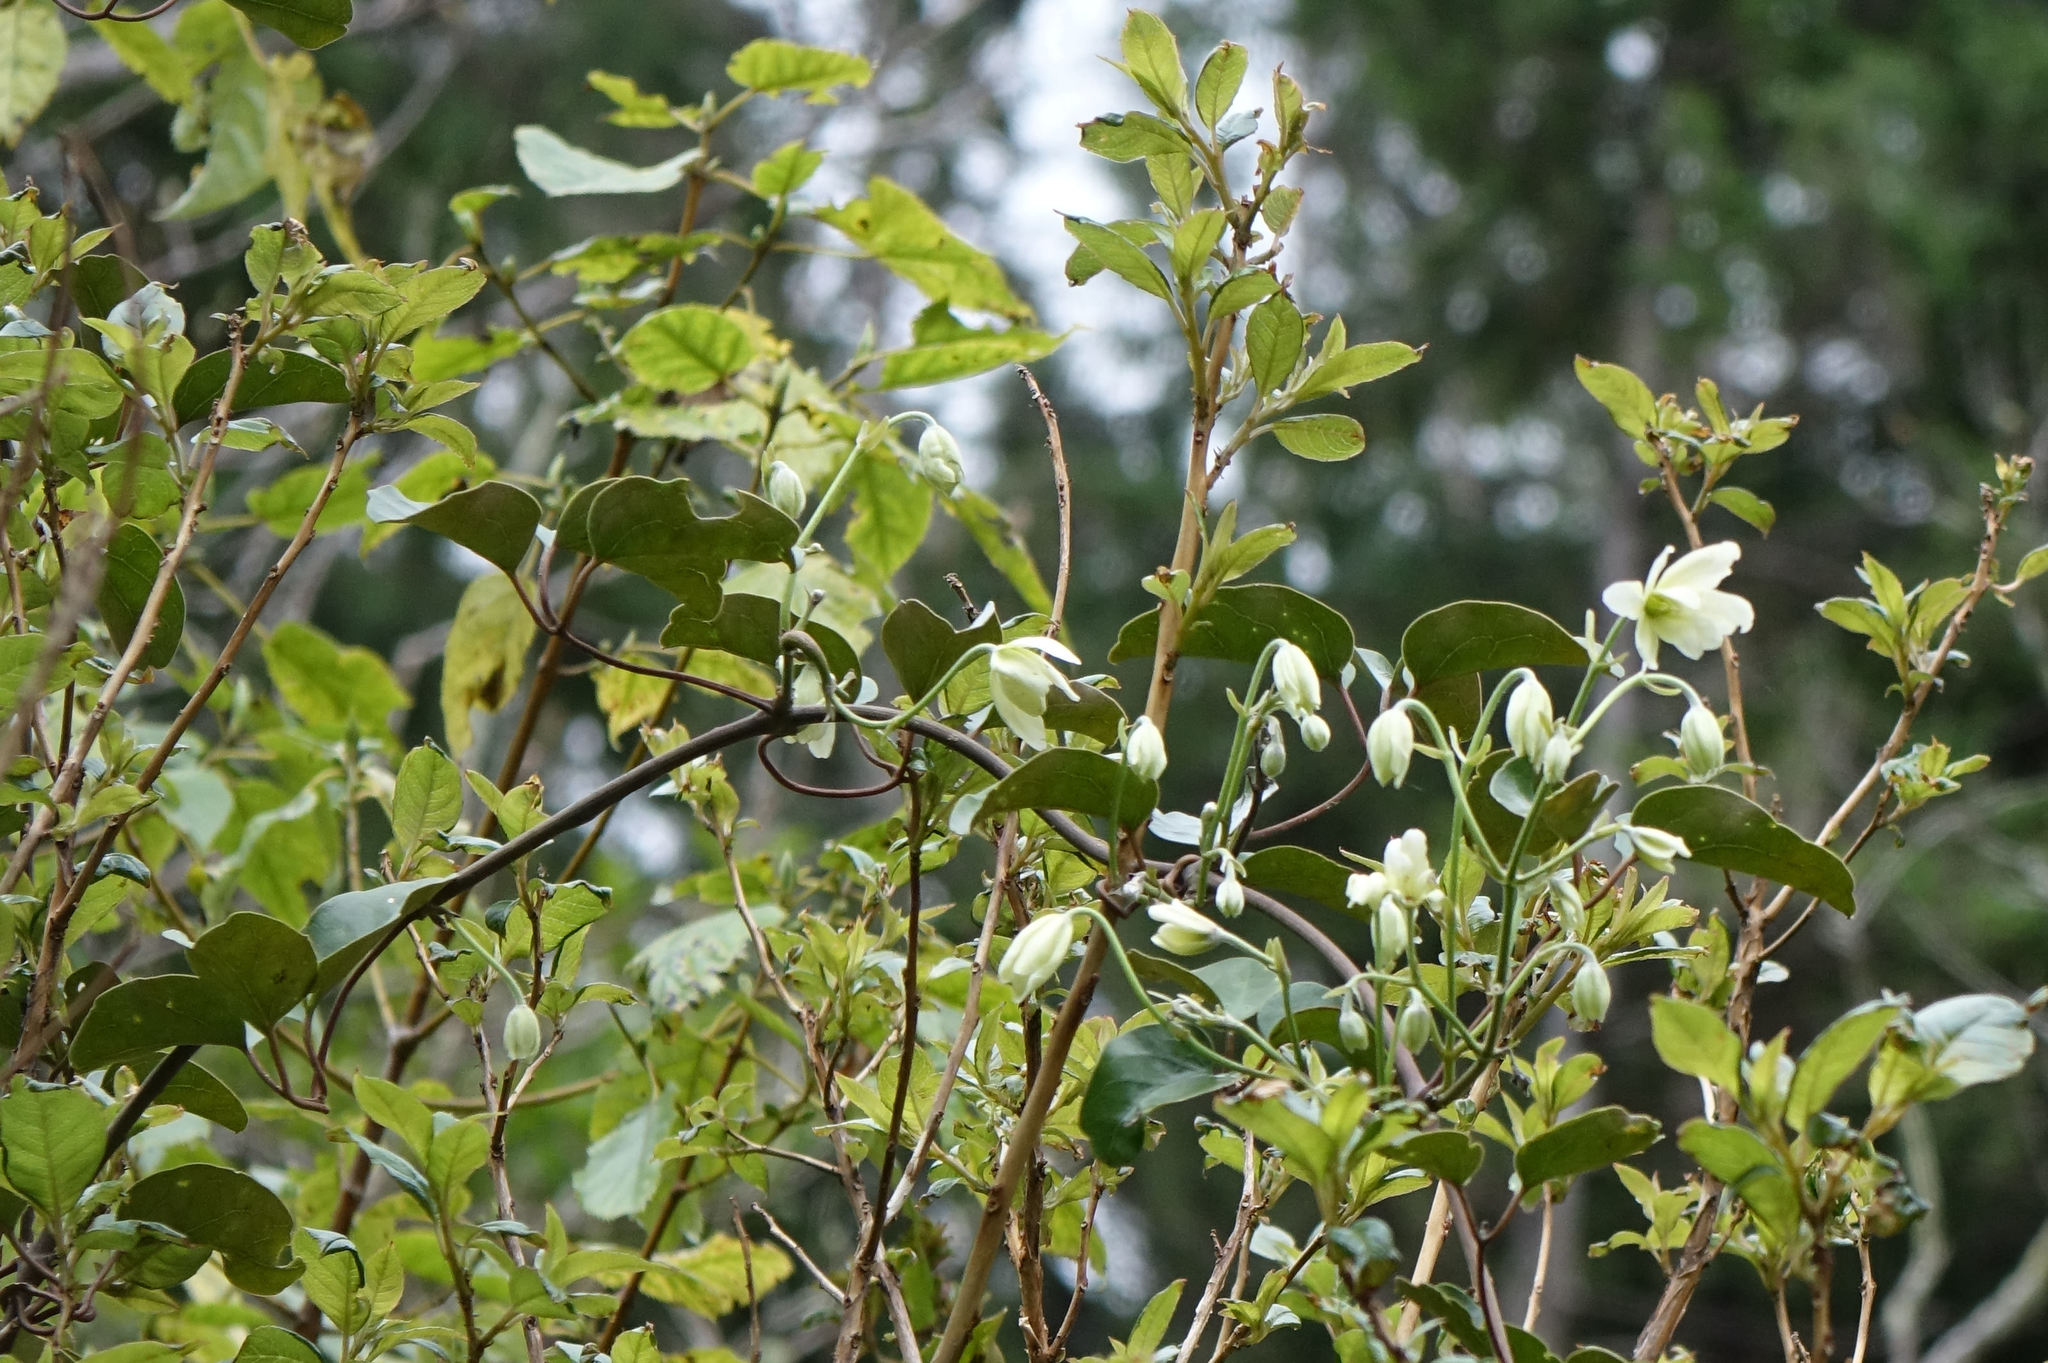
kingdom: Plantae
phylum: Tracheophyta
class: Magnoliopsida
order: Ranunculales
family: Ranunculaceae
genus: Clematis
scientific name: Clematis paniculata
